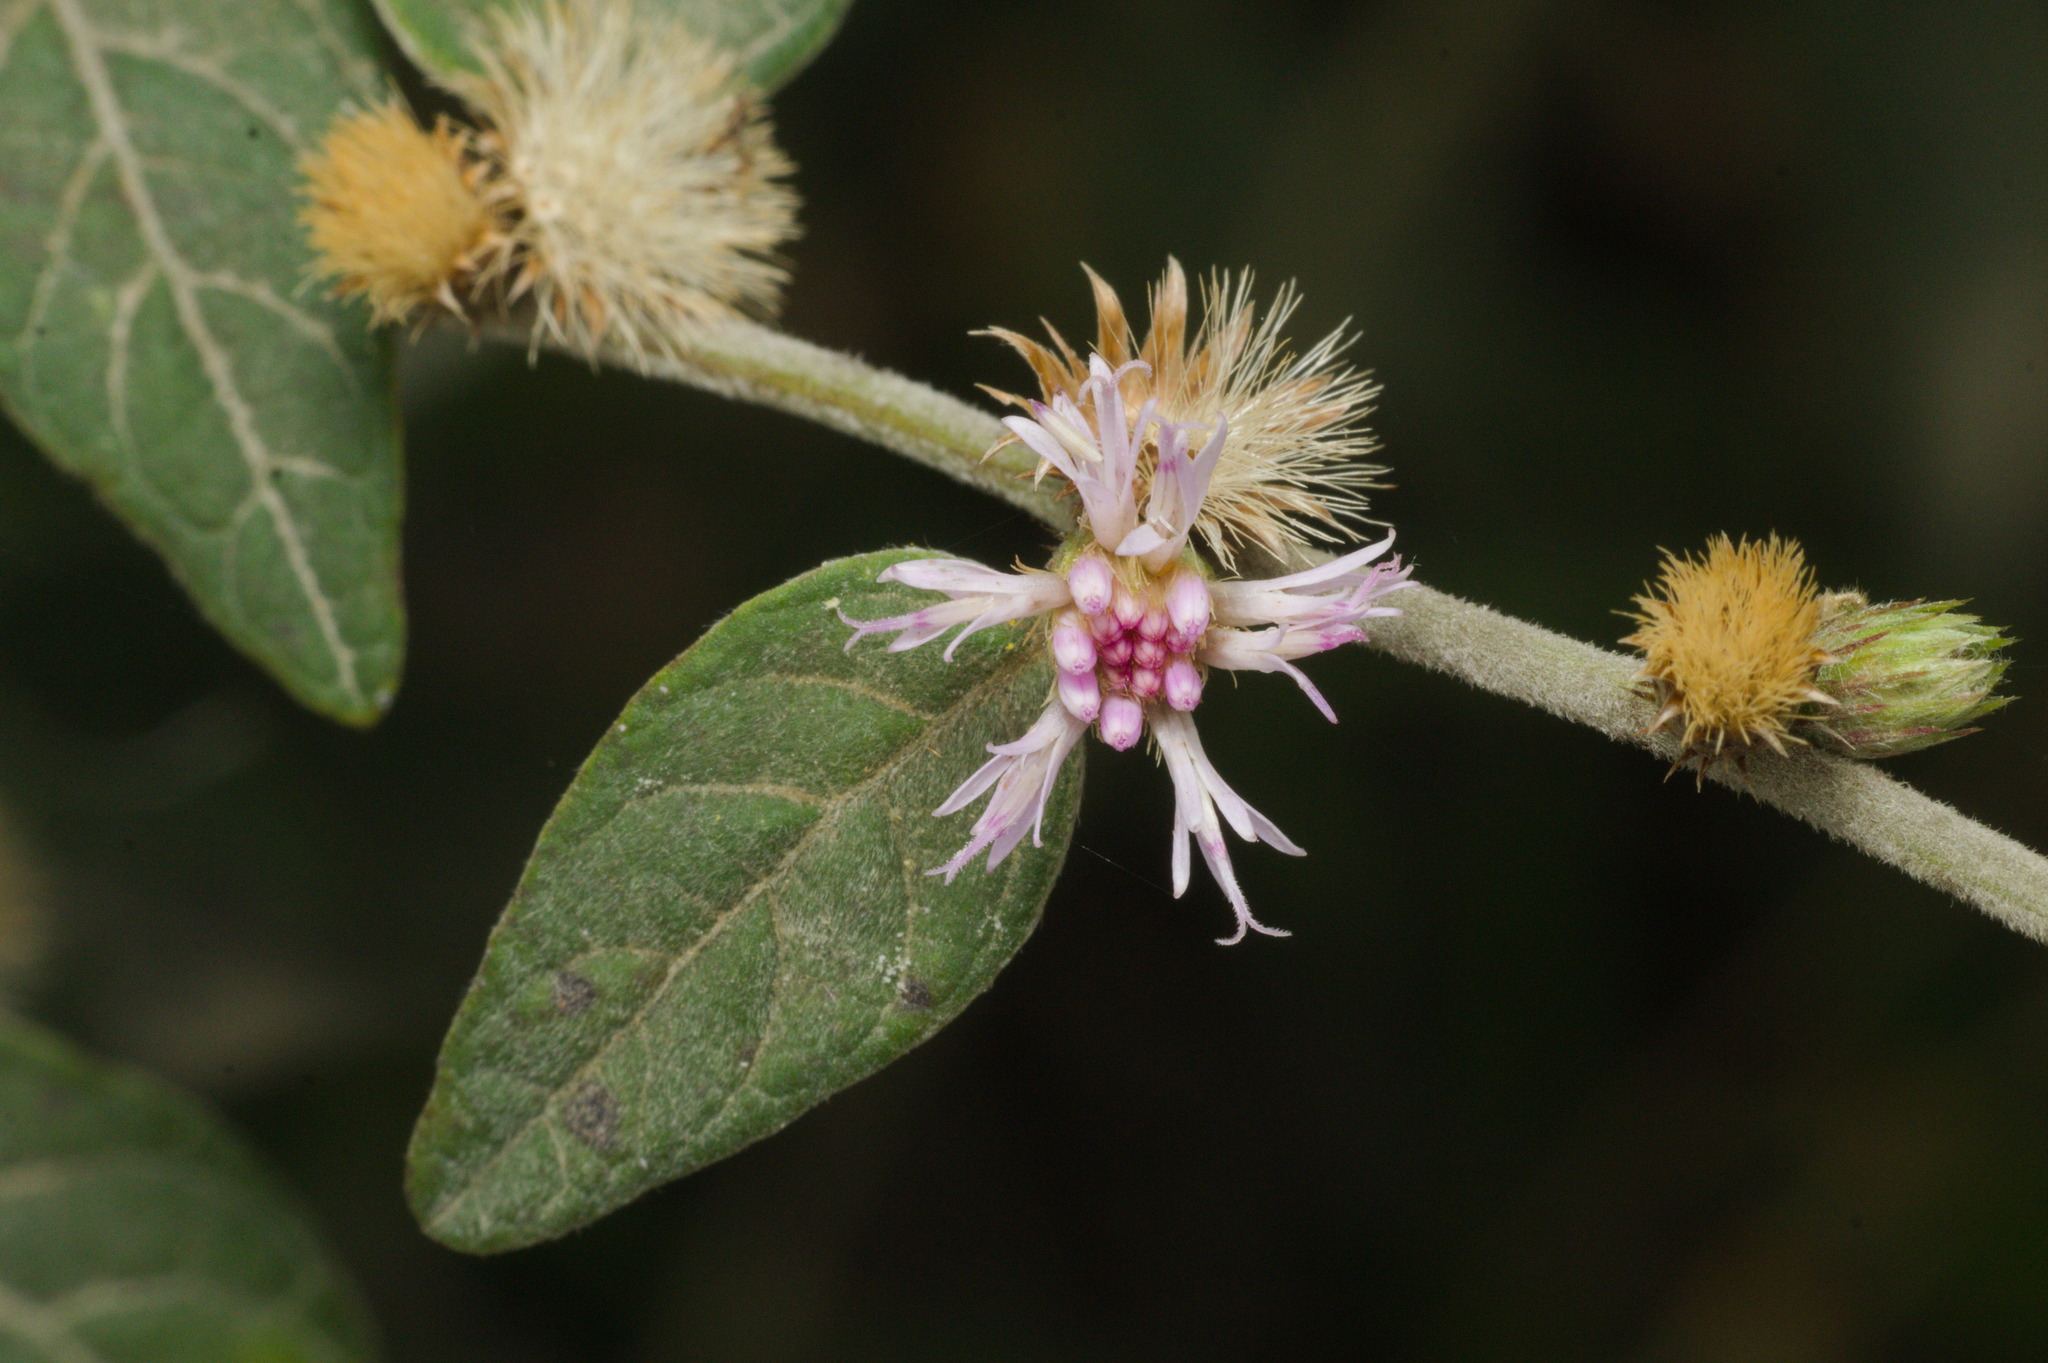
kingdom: Plantae
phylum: Tracheophyta
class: Magnoliopsida
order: Asterales
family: Asteraceae
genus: Lepidaploa
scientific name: Lepidaploa chamissonis
